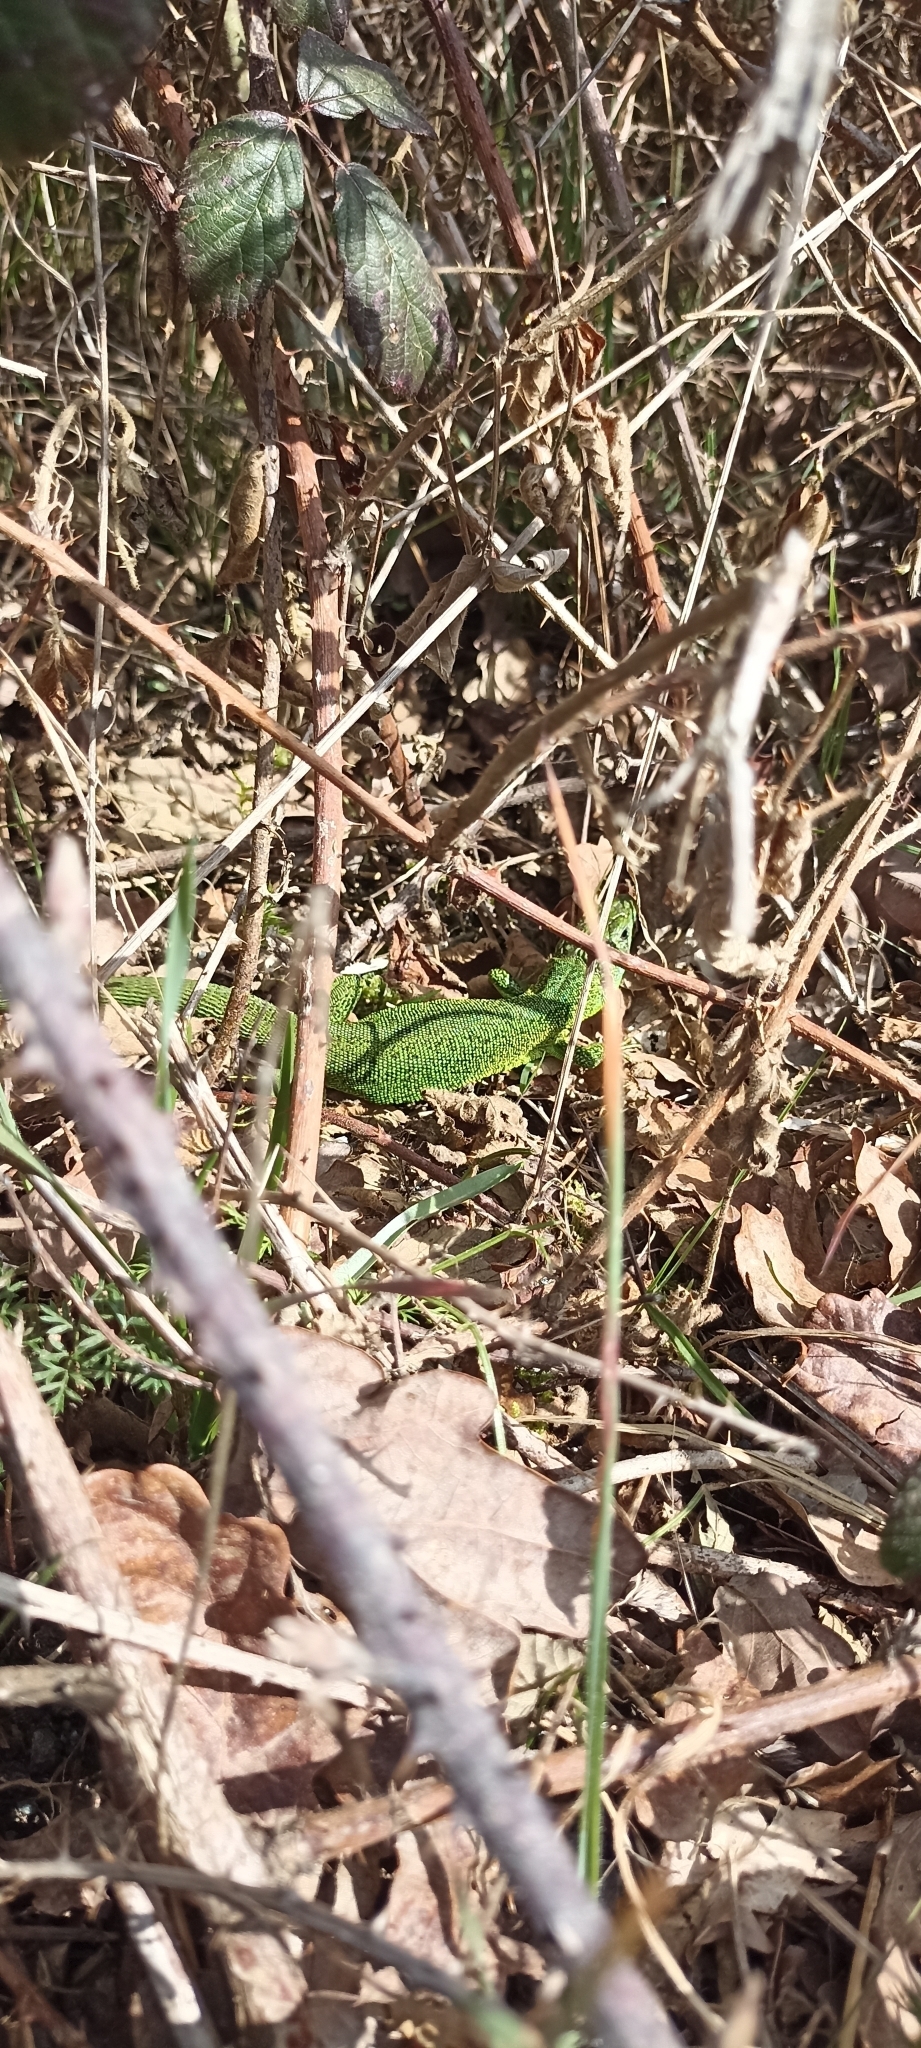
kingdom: Animalia
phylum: Chordata
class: Squamata
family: Lacertidae
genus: Lacerta
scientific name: Lacerta bilineata
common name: Western green lizard
